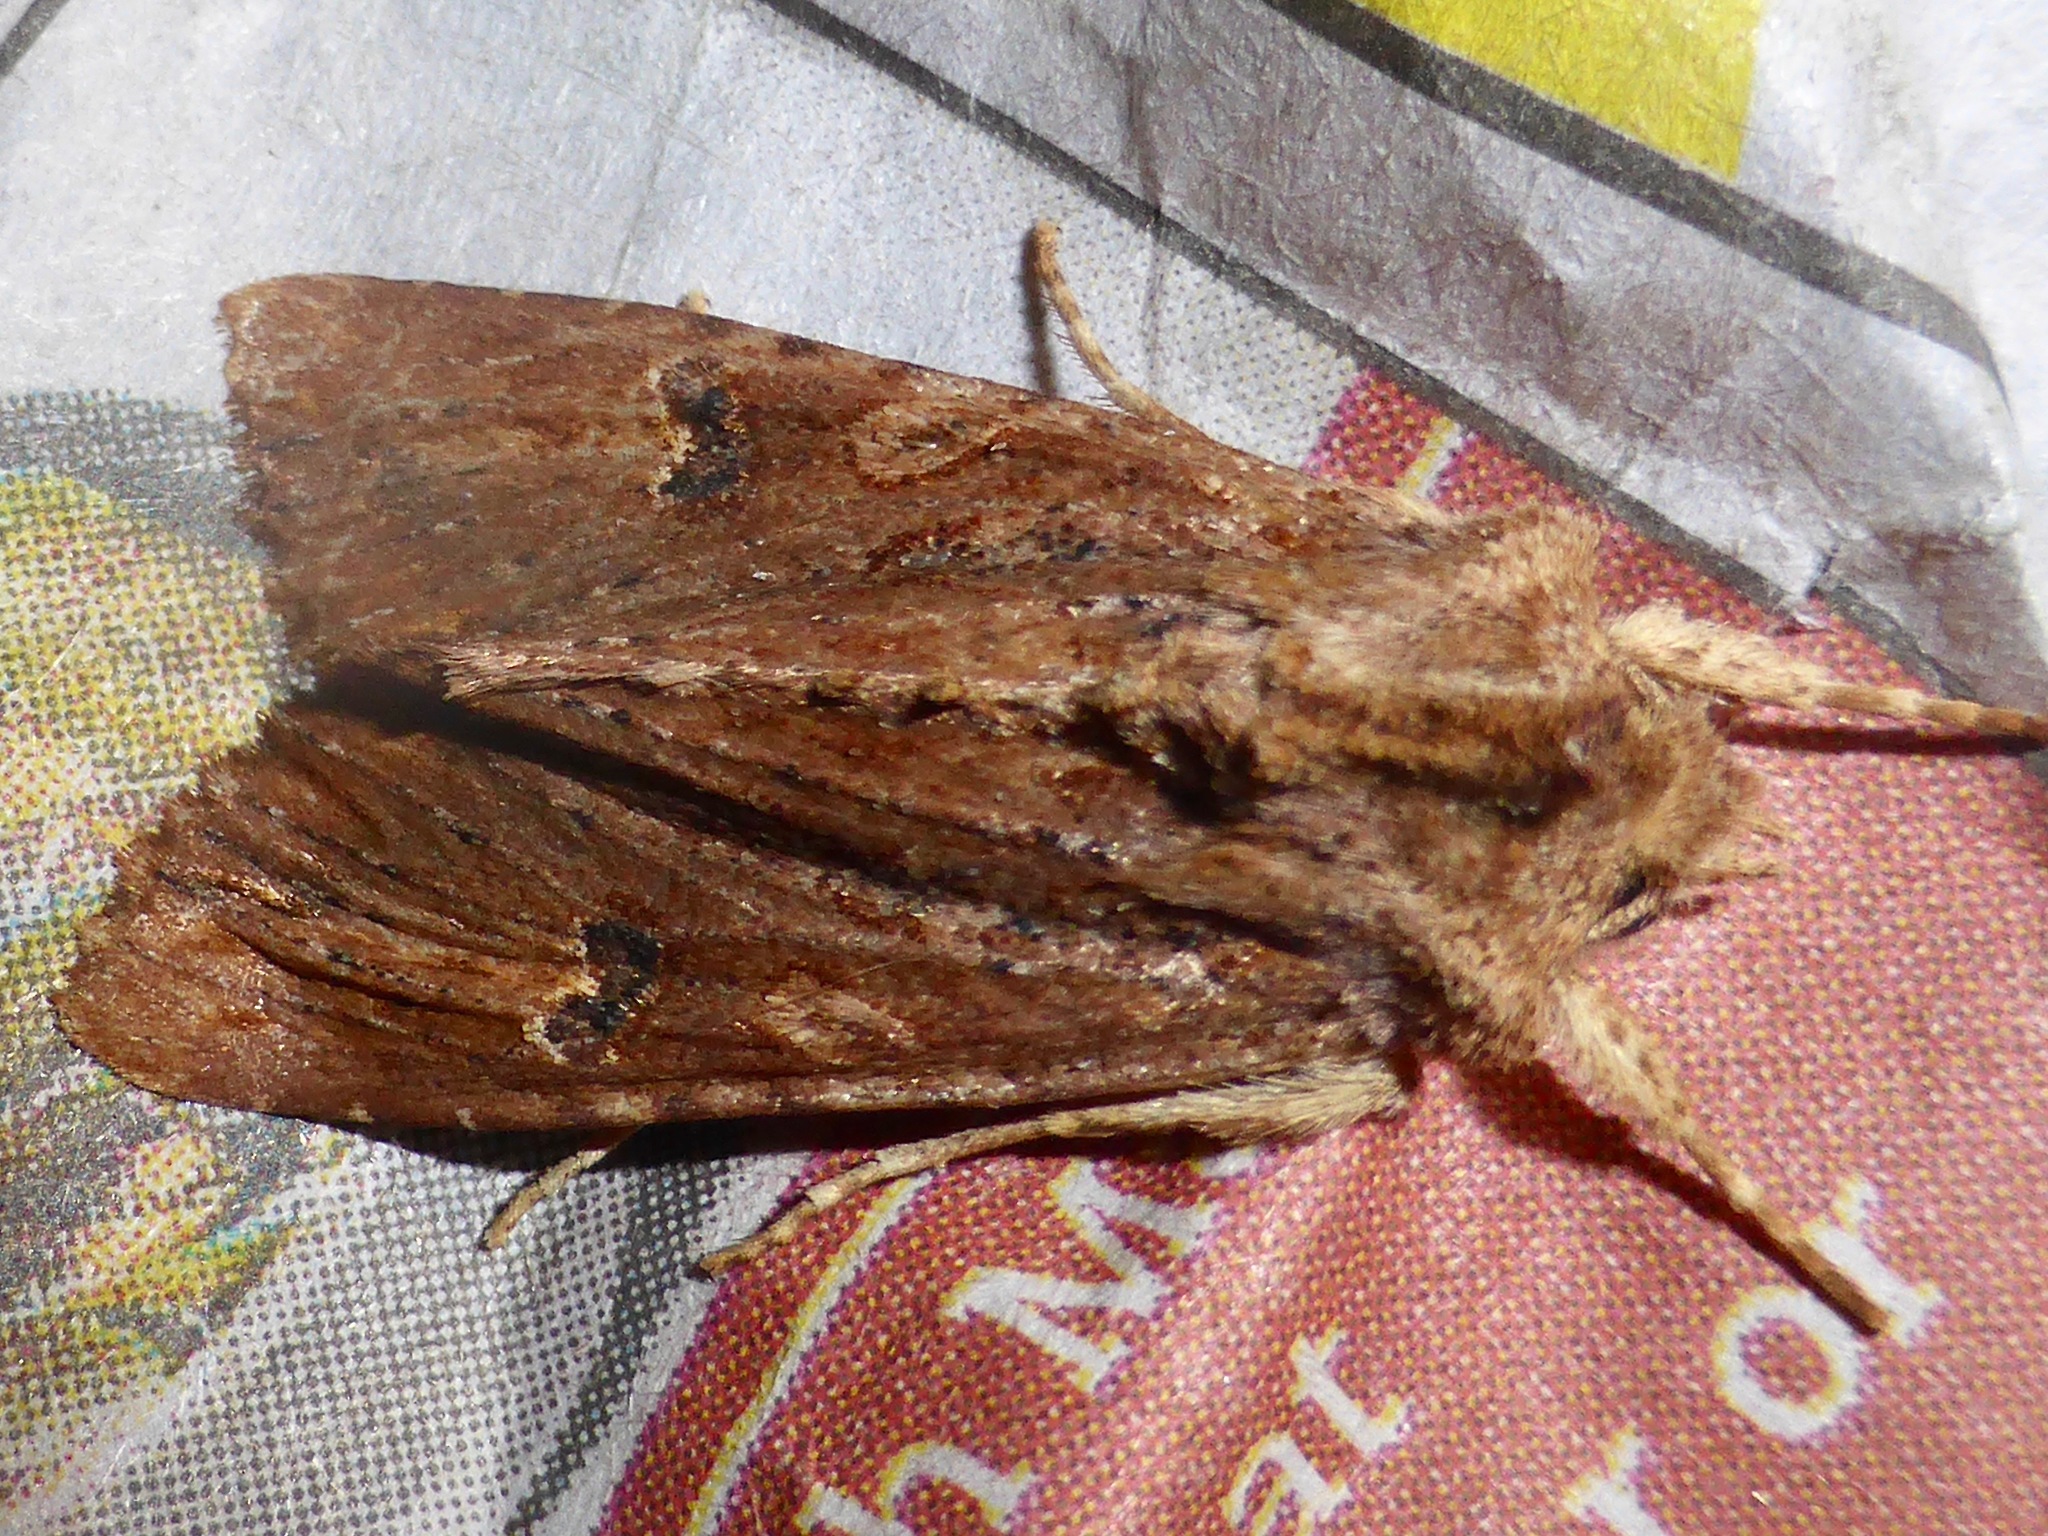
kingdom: Animalia
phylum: Arthropoda
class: Insecta
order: Lepidoptera
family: Noctuidae
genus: Ichneutica
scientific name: Ichneutica
